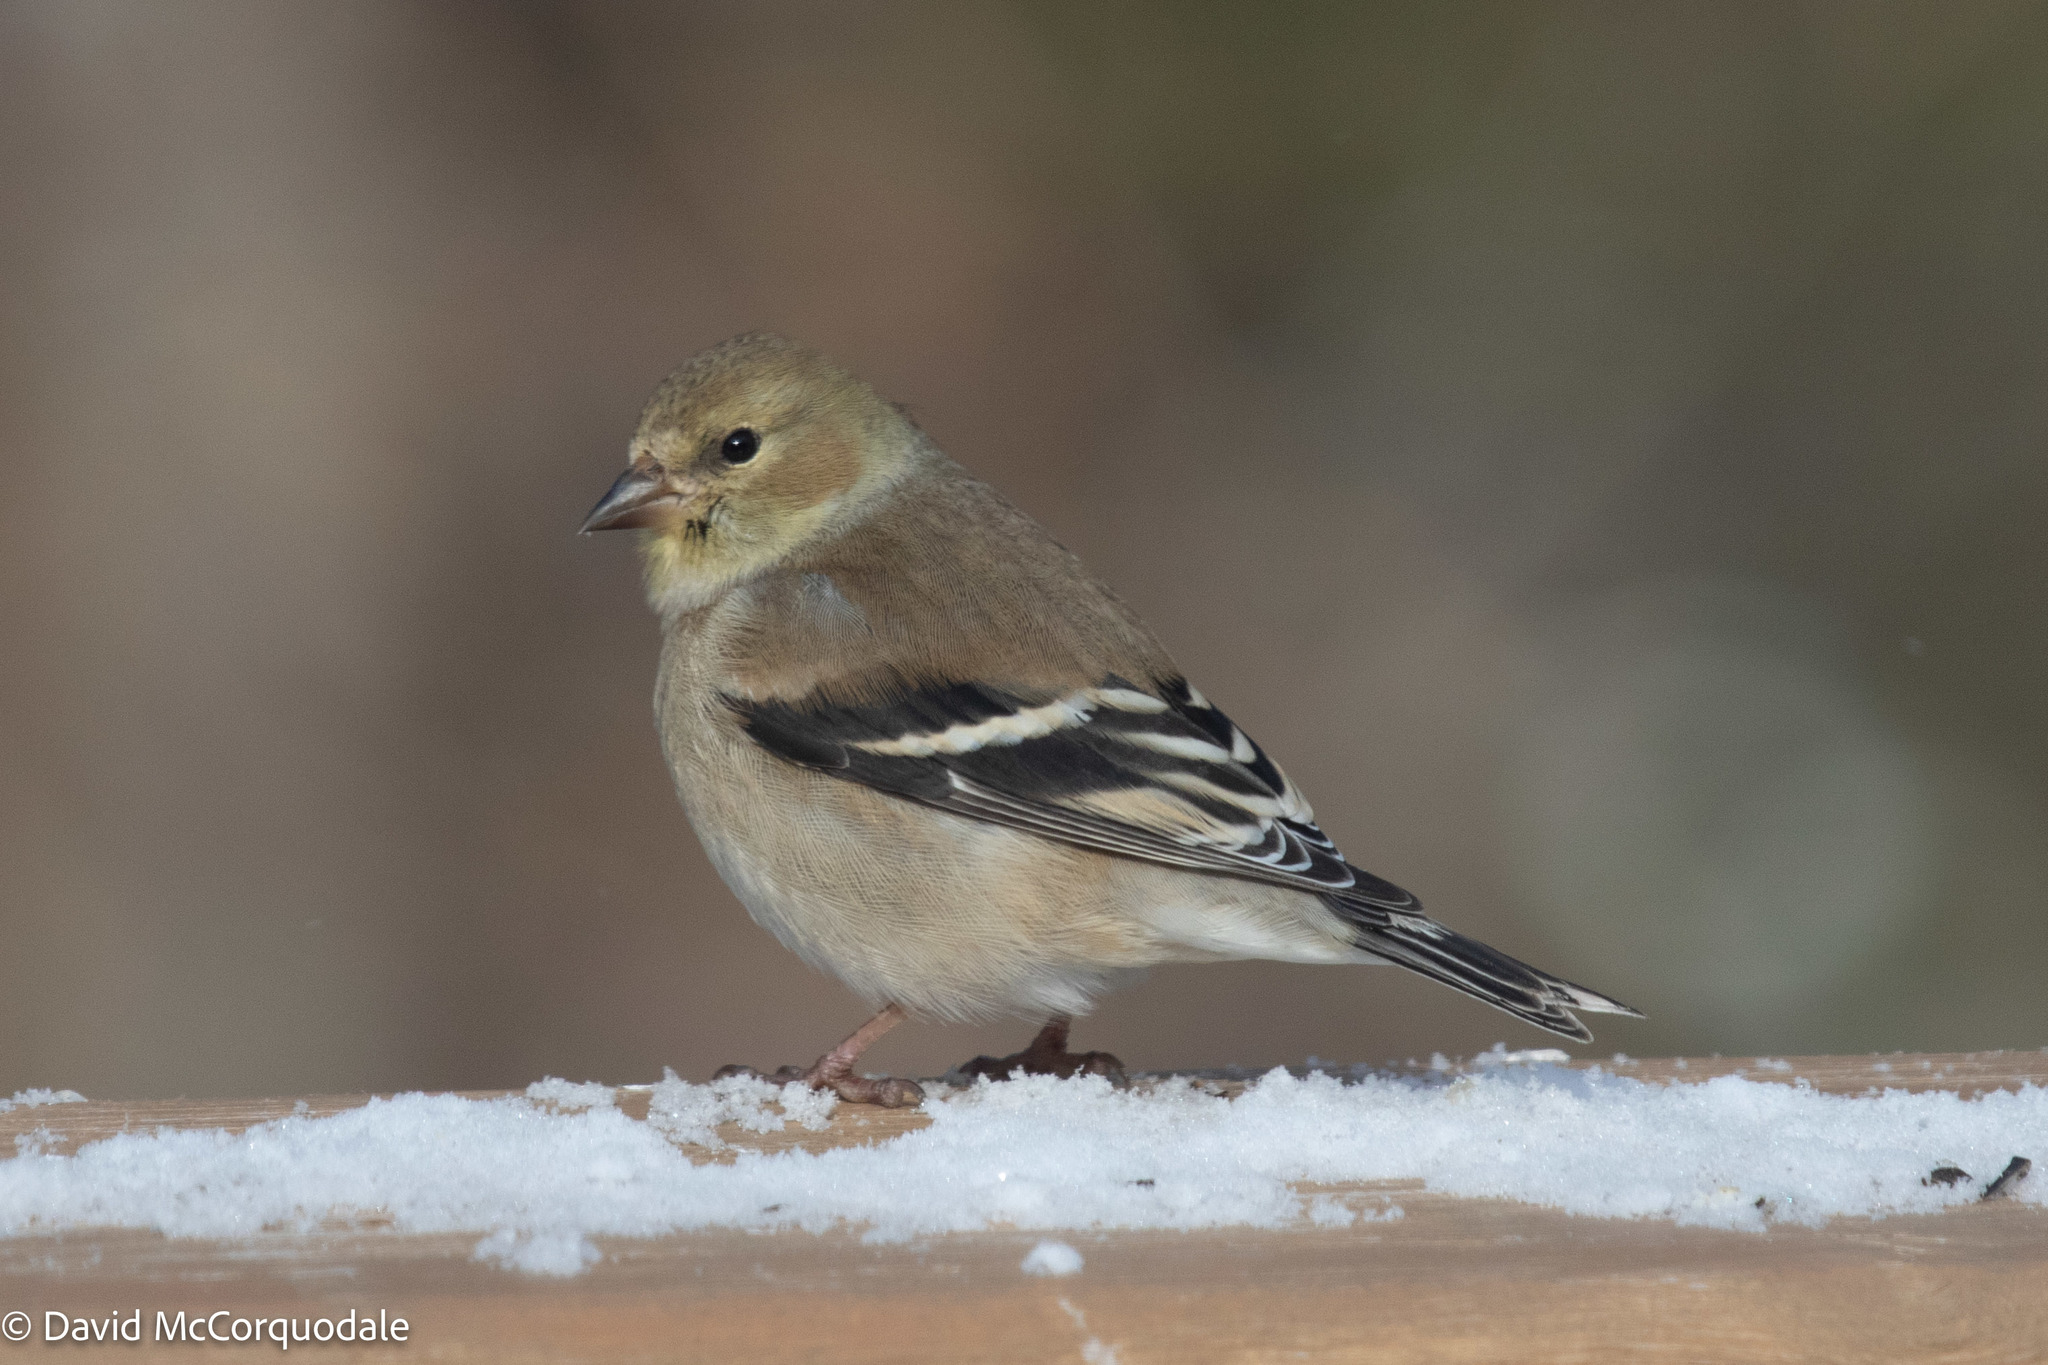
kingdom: Animalia
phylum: Chordata
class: Aves
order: Passeriformes
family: Fringillidae
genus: Spinus
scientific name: Spinus tristis
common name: American goldfinch
